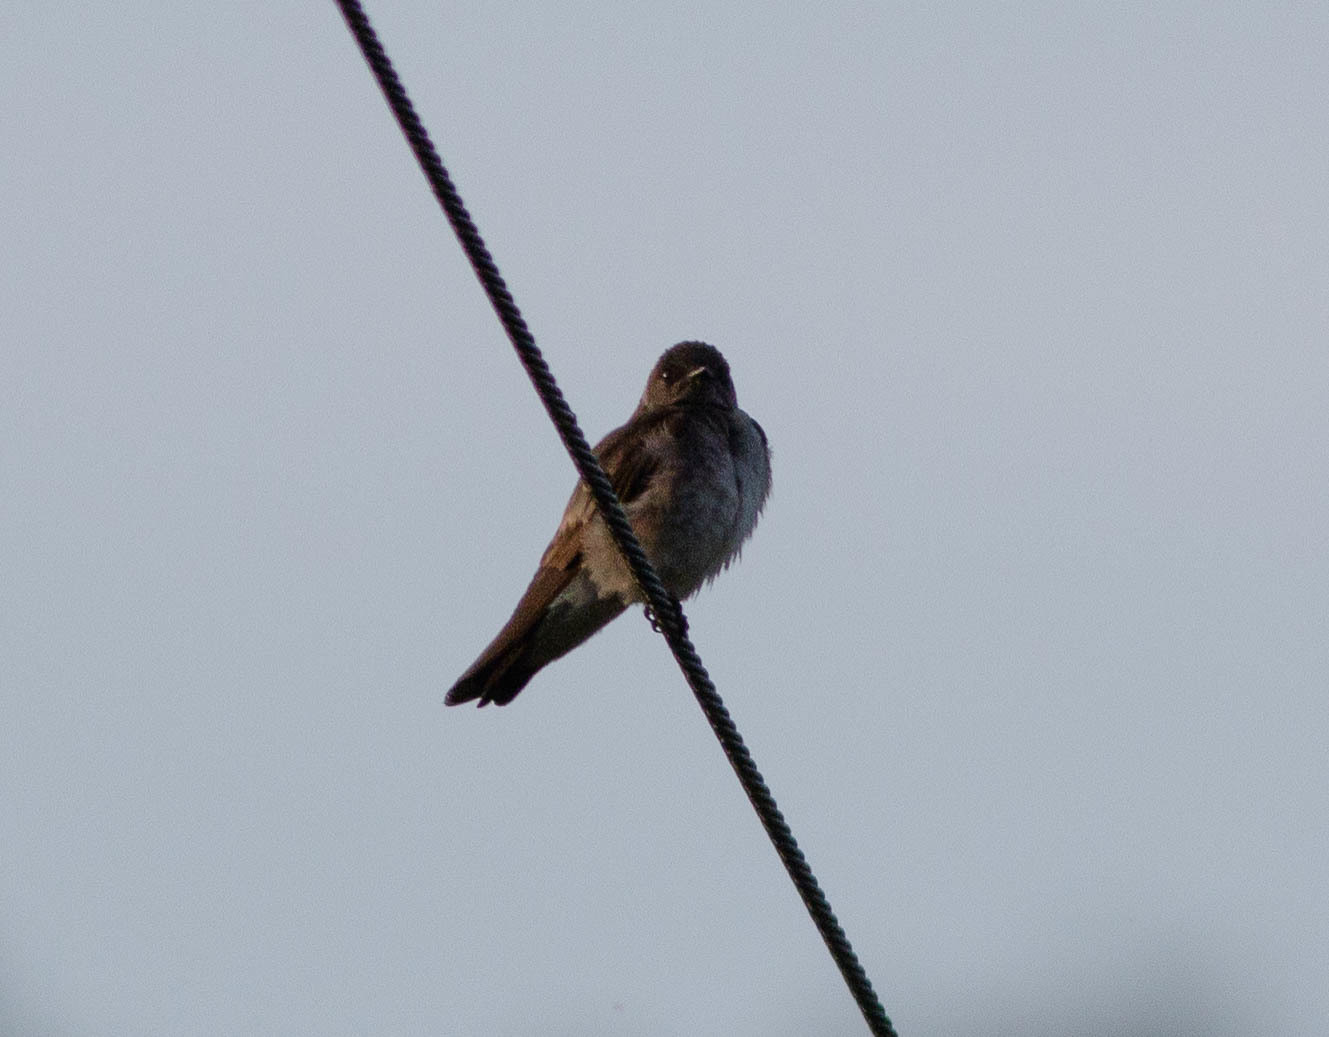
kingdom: Animalia
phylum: Chordata
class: Aves
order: Passeriformes
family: Hirundinidae
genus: Stelgidopteryx
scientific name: Stelgidopteryx serripennis
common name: Northern rough-winged swallow
